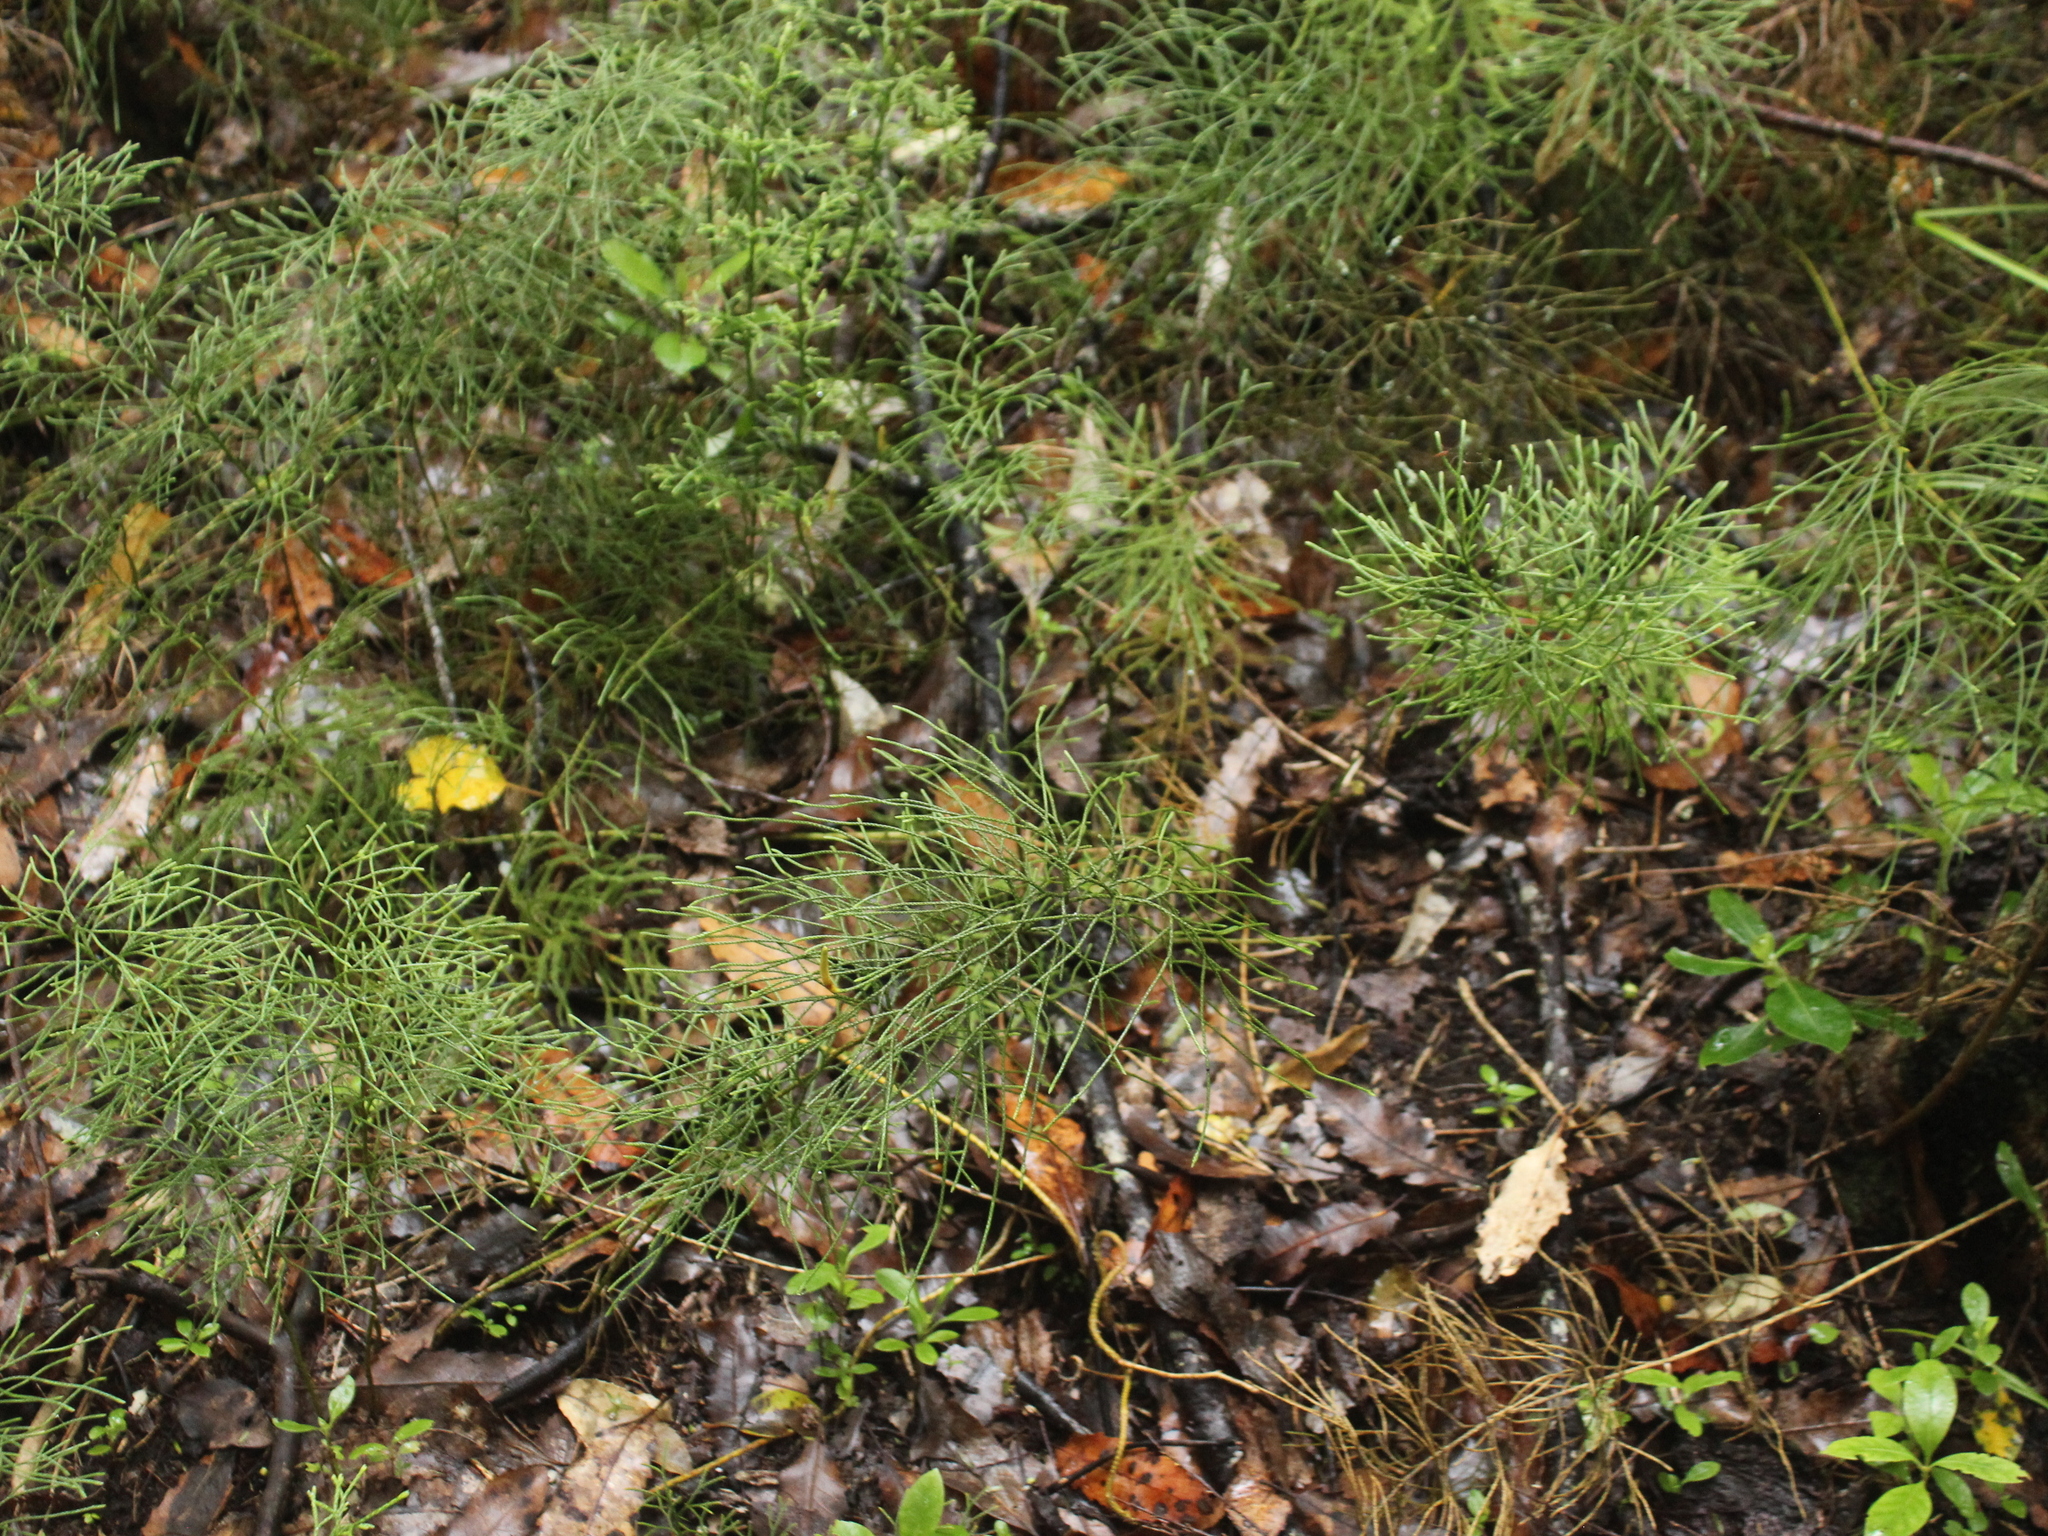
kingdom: Plantae
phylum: Tracheophyta
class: Lycopodiopsida
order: Lycopodiales
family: Lycopodiaceae
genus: Pseudolycopodium
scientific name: Pseudolycopodium densum
